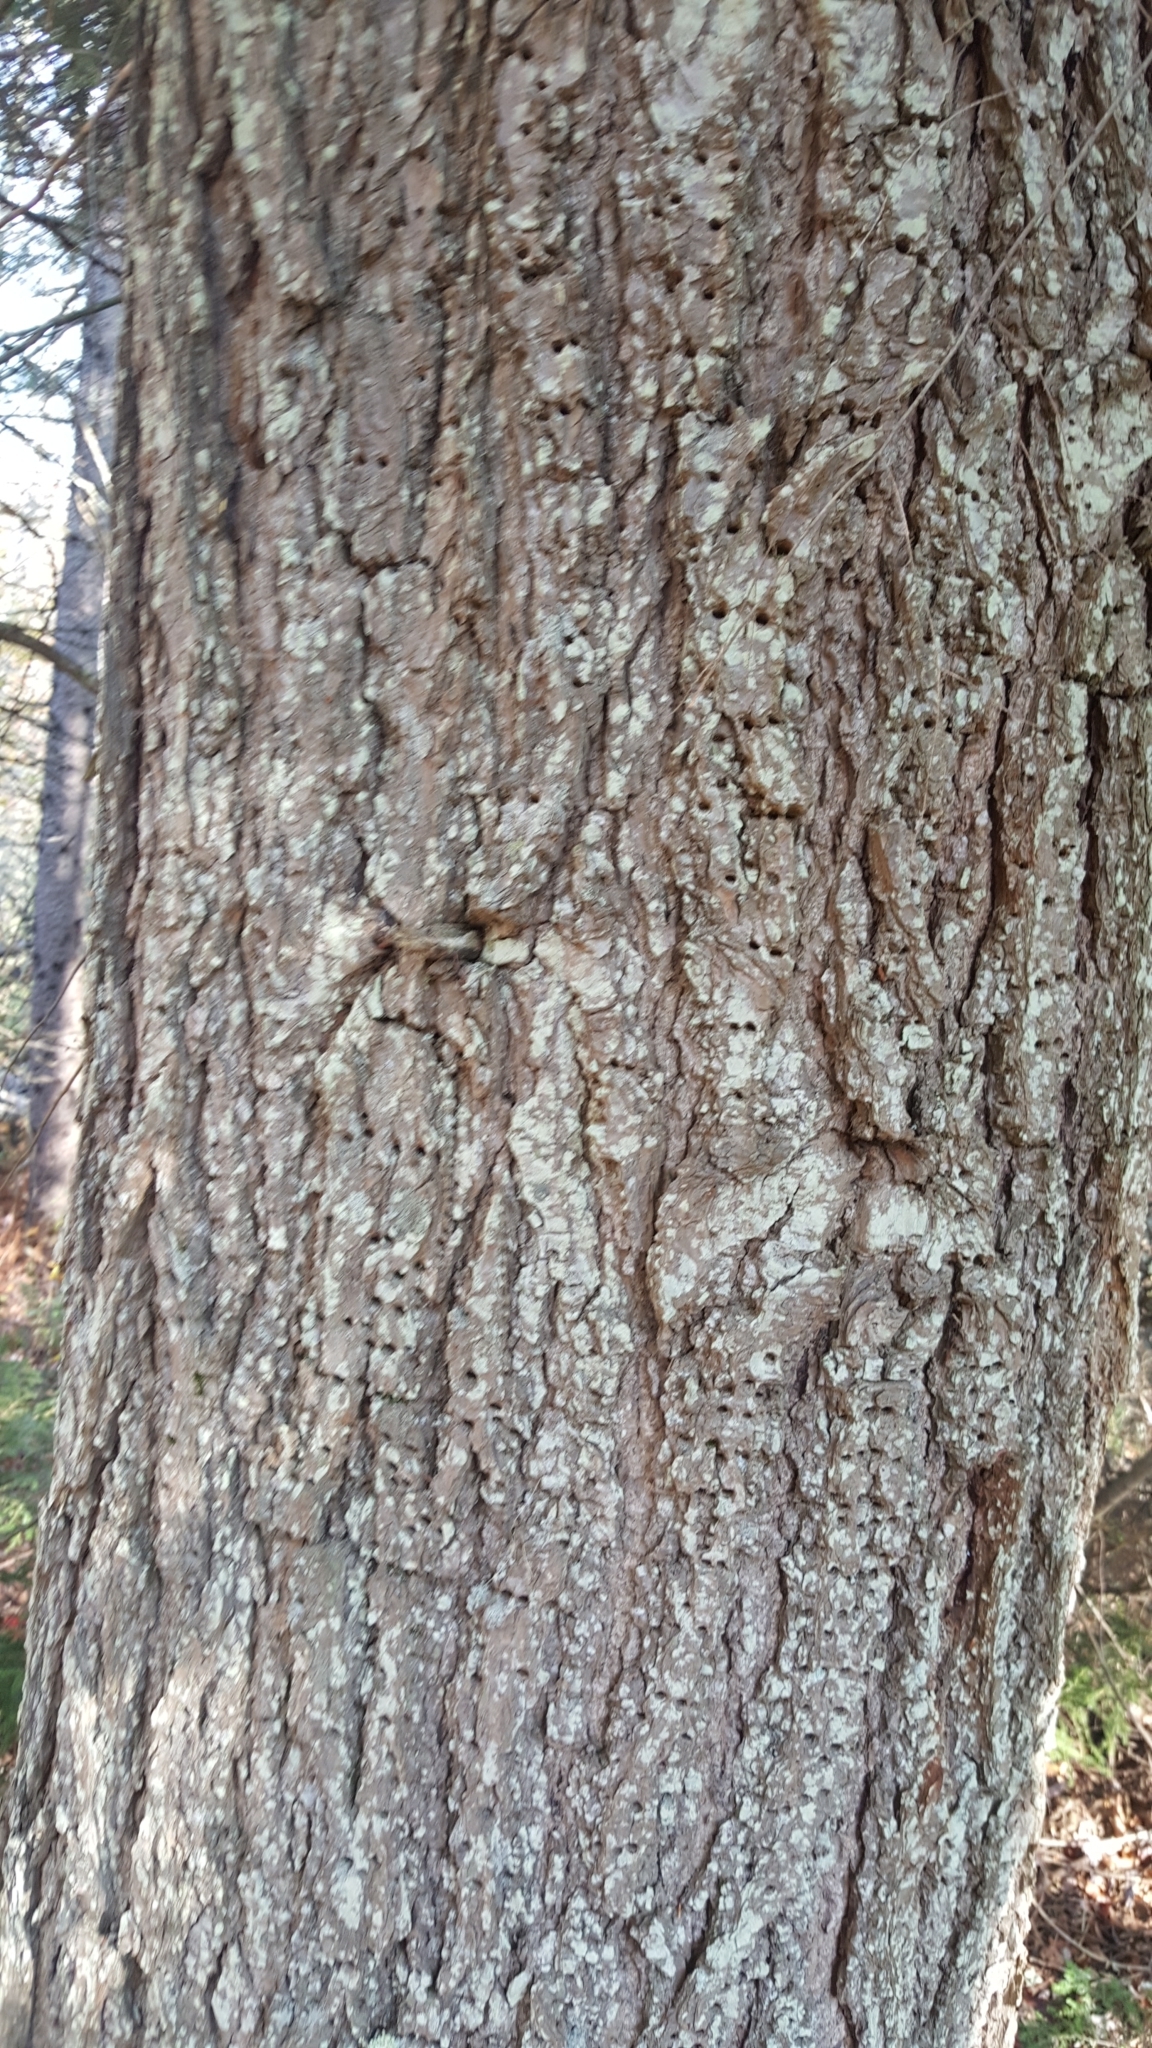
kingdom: Animalia
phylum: Chordata
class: Aves
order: Piciformes
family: Picidae
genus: Sphyrapicus
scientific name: Sphyrapicus varius
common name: Yellow-bellied sapsucker
